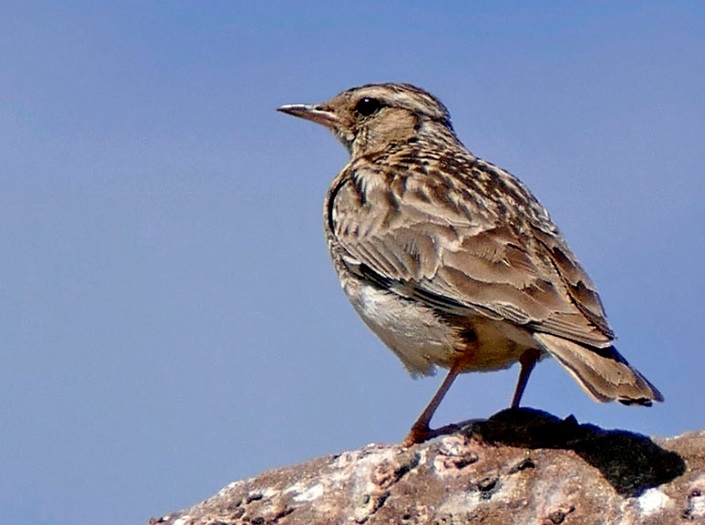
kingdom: Animalia
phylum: Chordata
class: Aves
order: Passeriformes
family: Alaudidae
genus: Lullula
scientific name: Lullula arborea
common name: Woodlark
